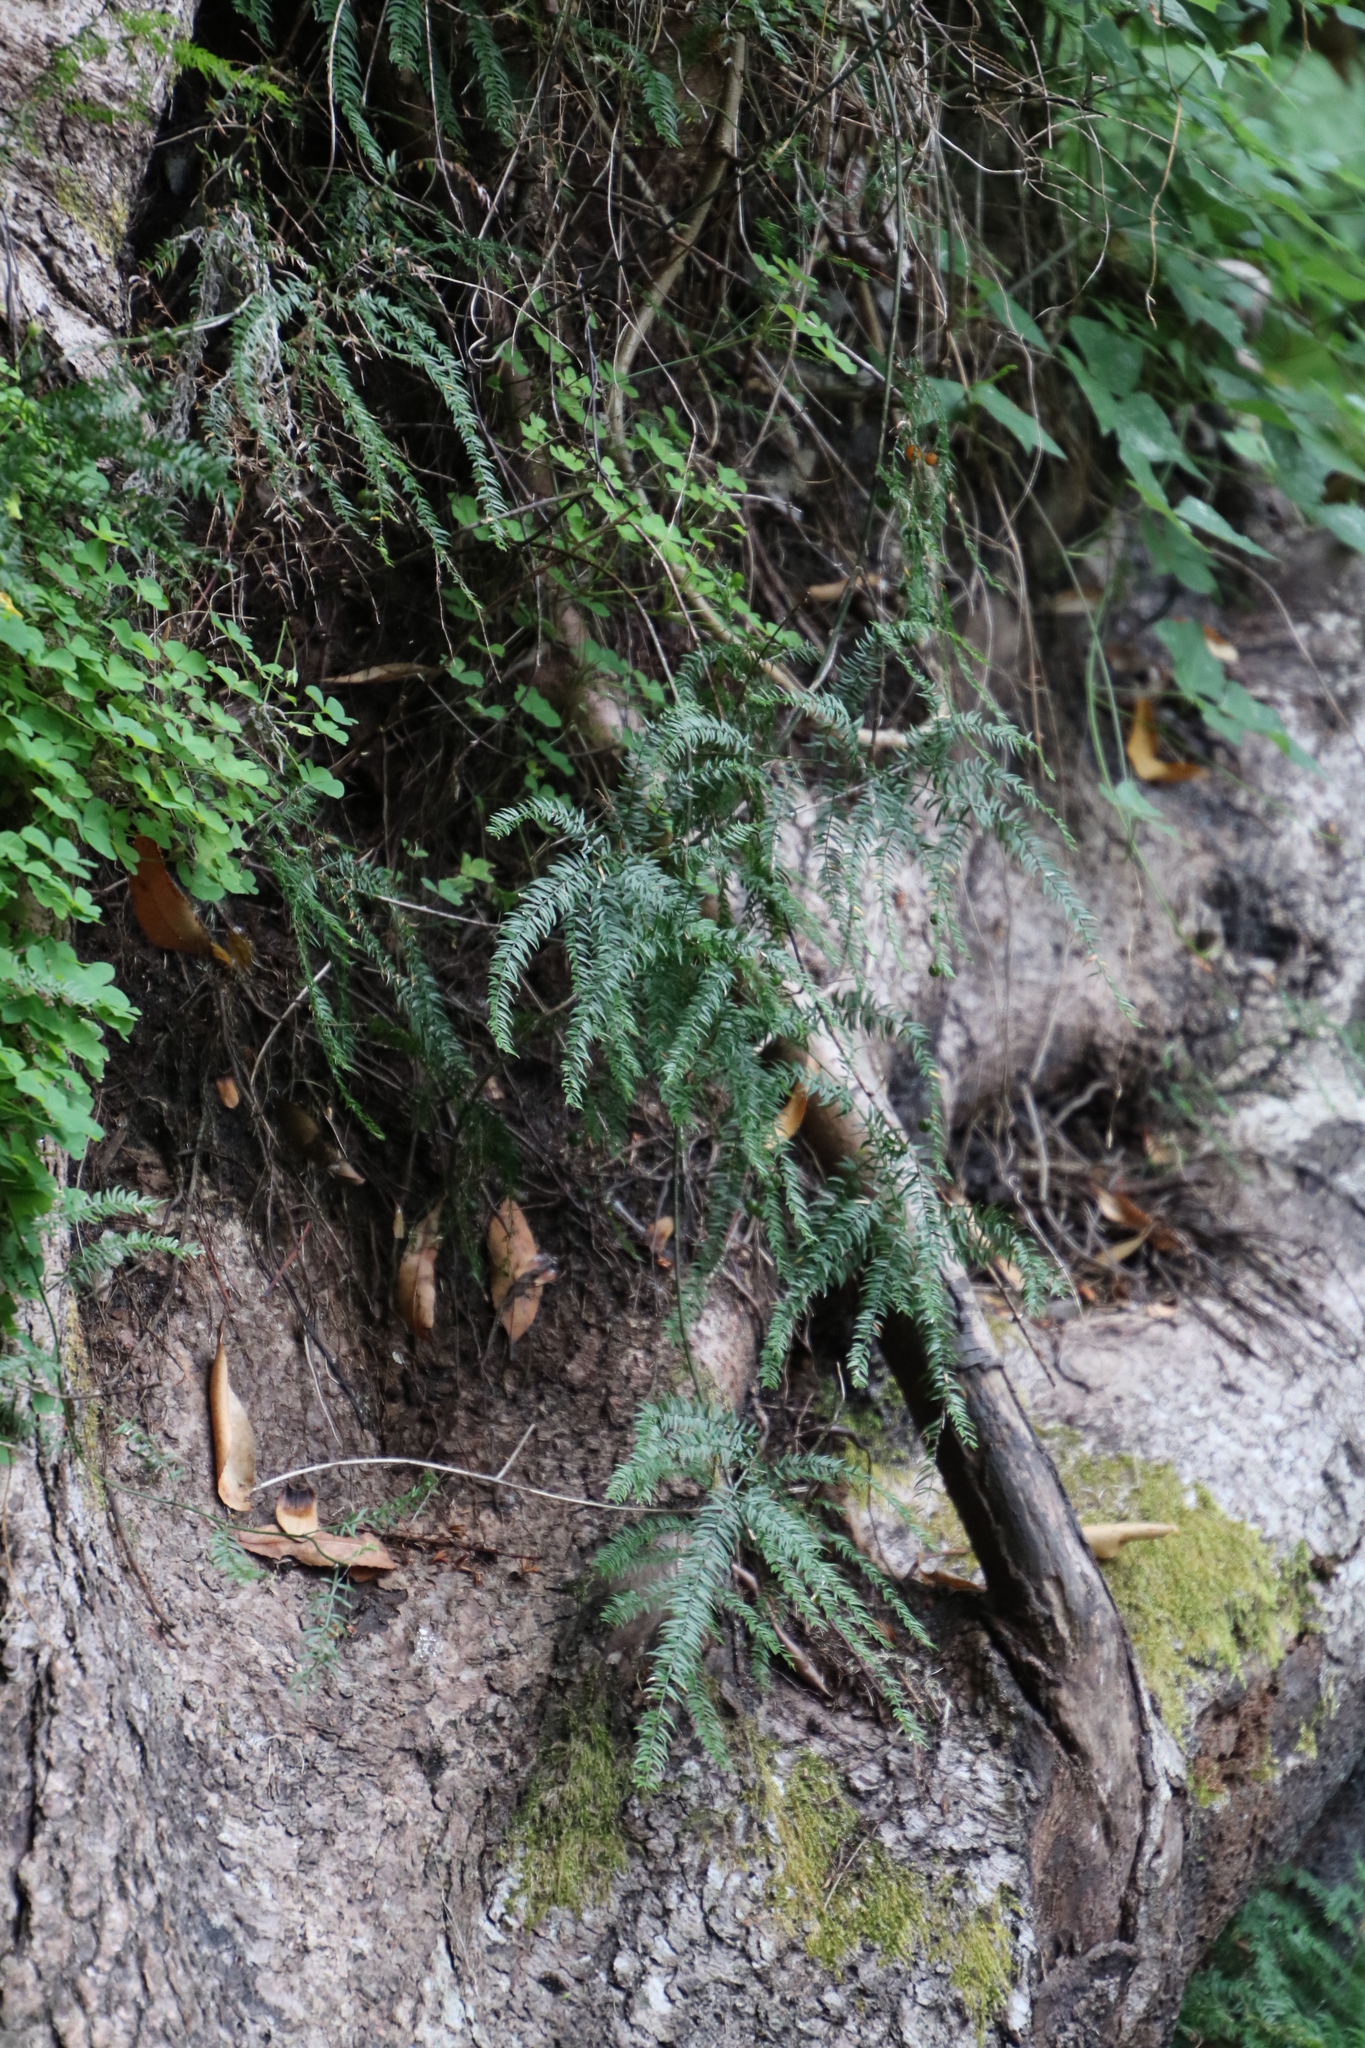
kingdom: Plantae
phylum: Tracheophyta
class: Liliopsida
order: Asparagales
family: Asparagaceae
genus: Asparagus
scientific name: Asparagus scandens
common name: Asparagus-fern
